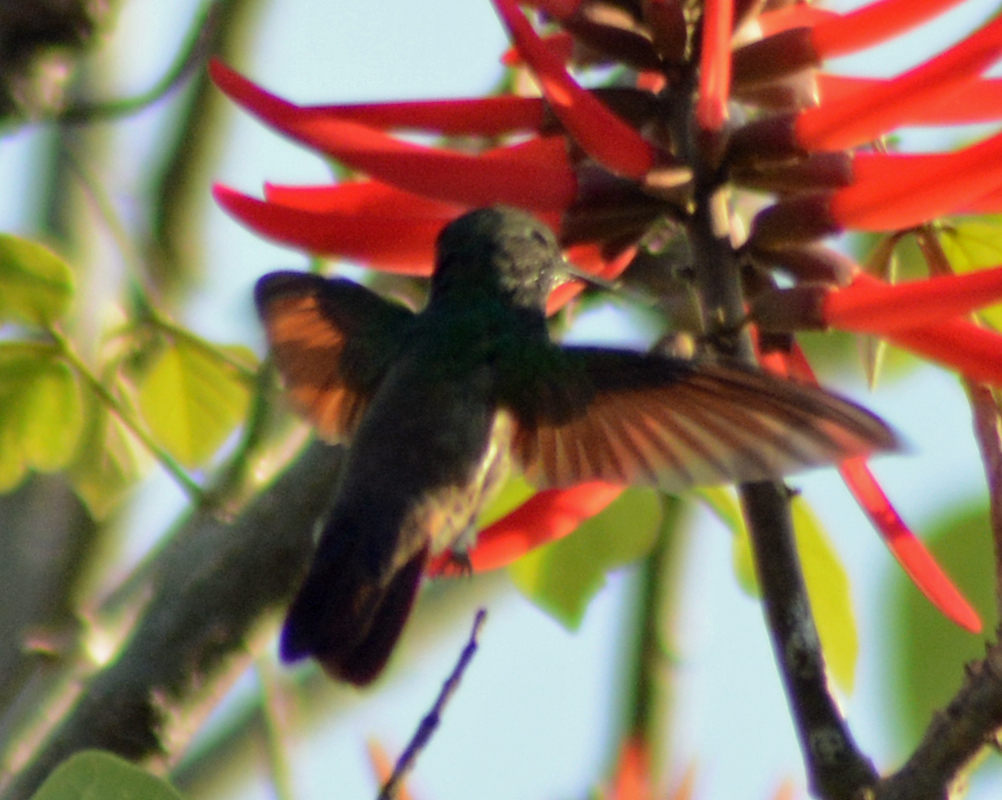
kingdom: Animalia
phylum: Chordata
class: Aves
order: Apodiformes
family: Trochilidae
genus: Saucerottia
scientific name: Saucerottia beryllina
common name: Berylline hummingbird
